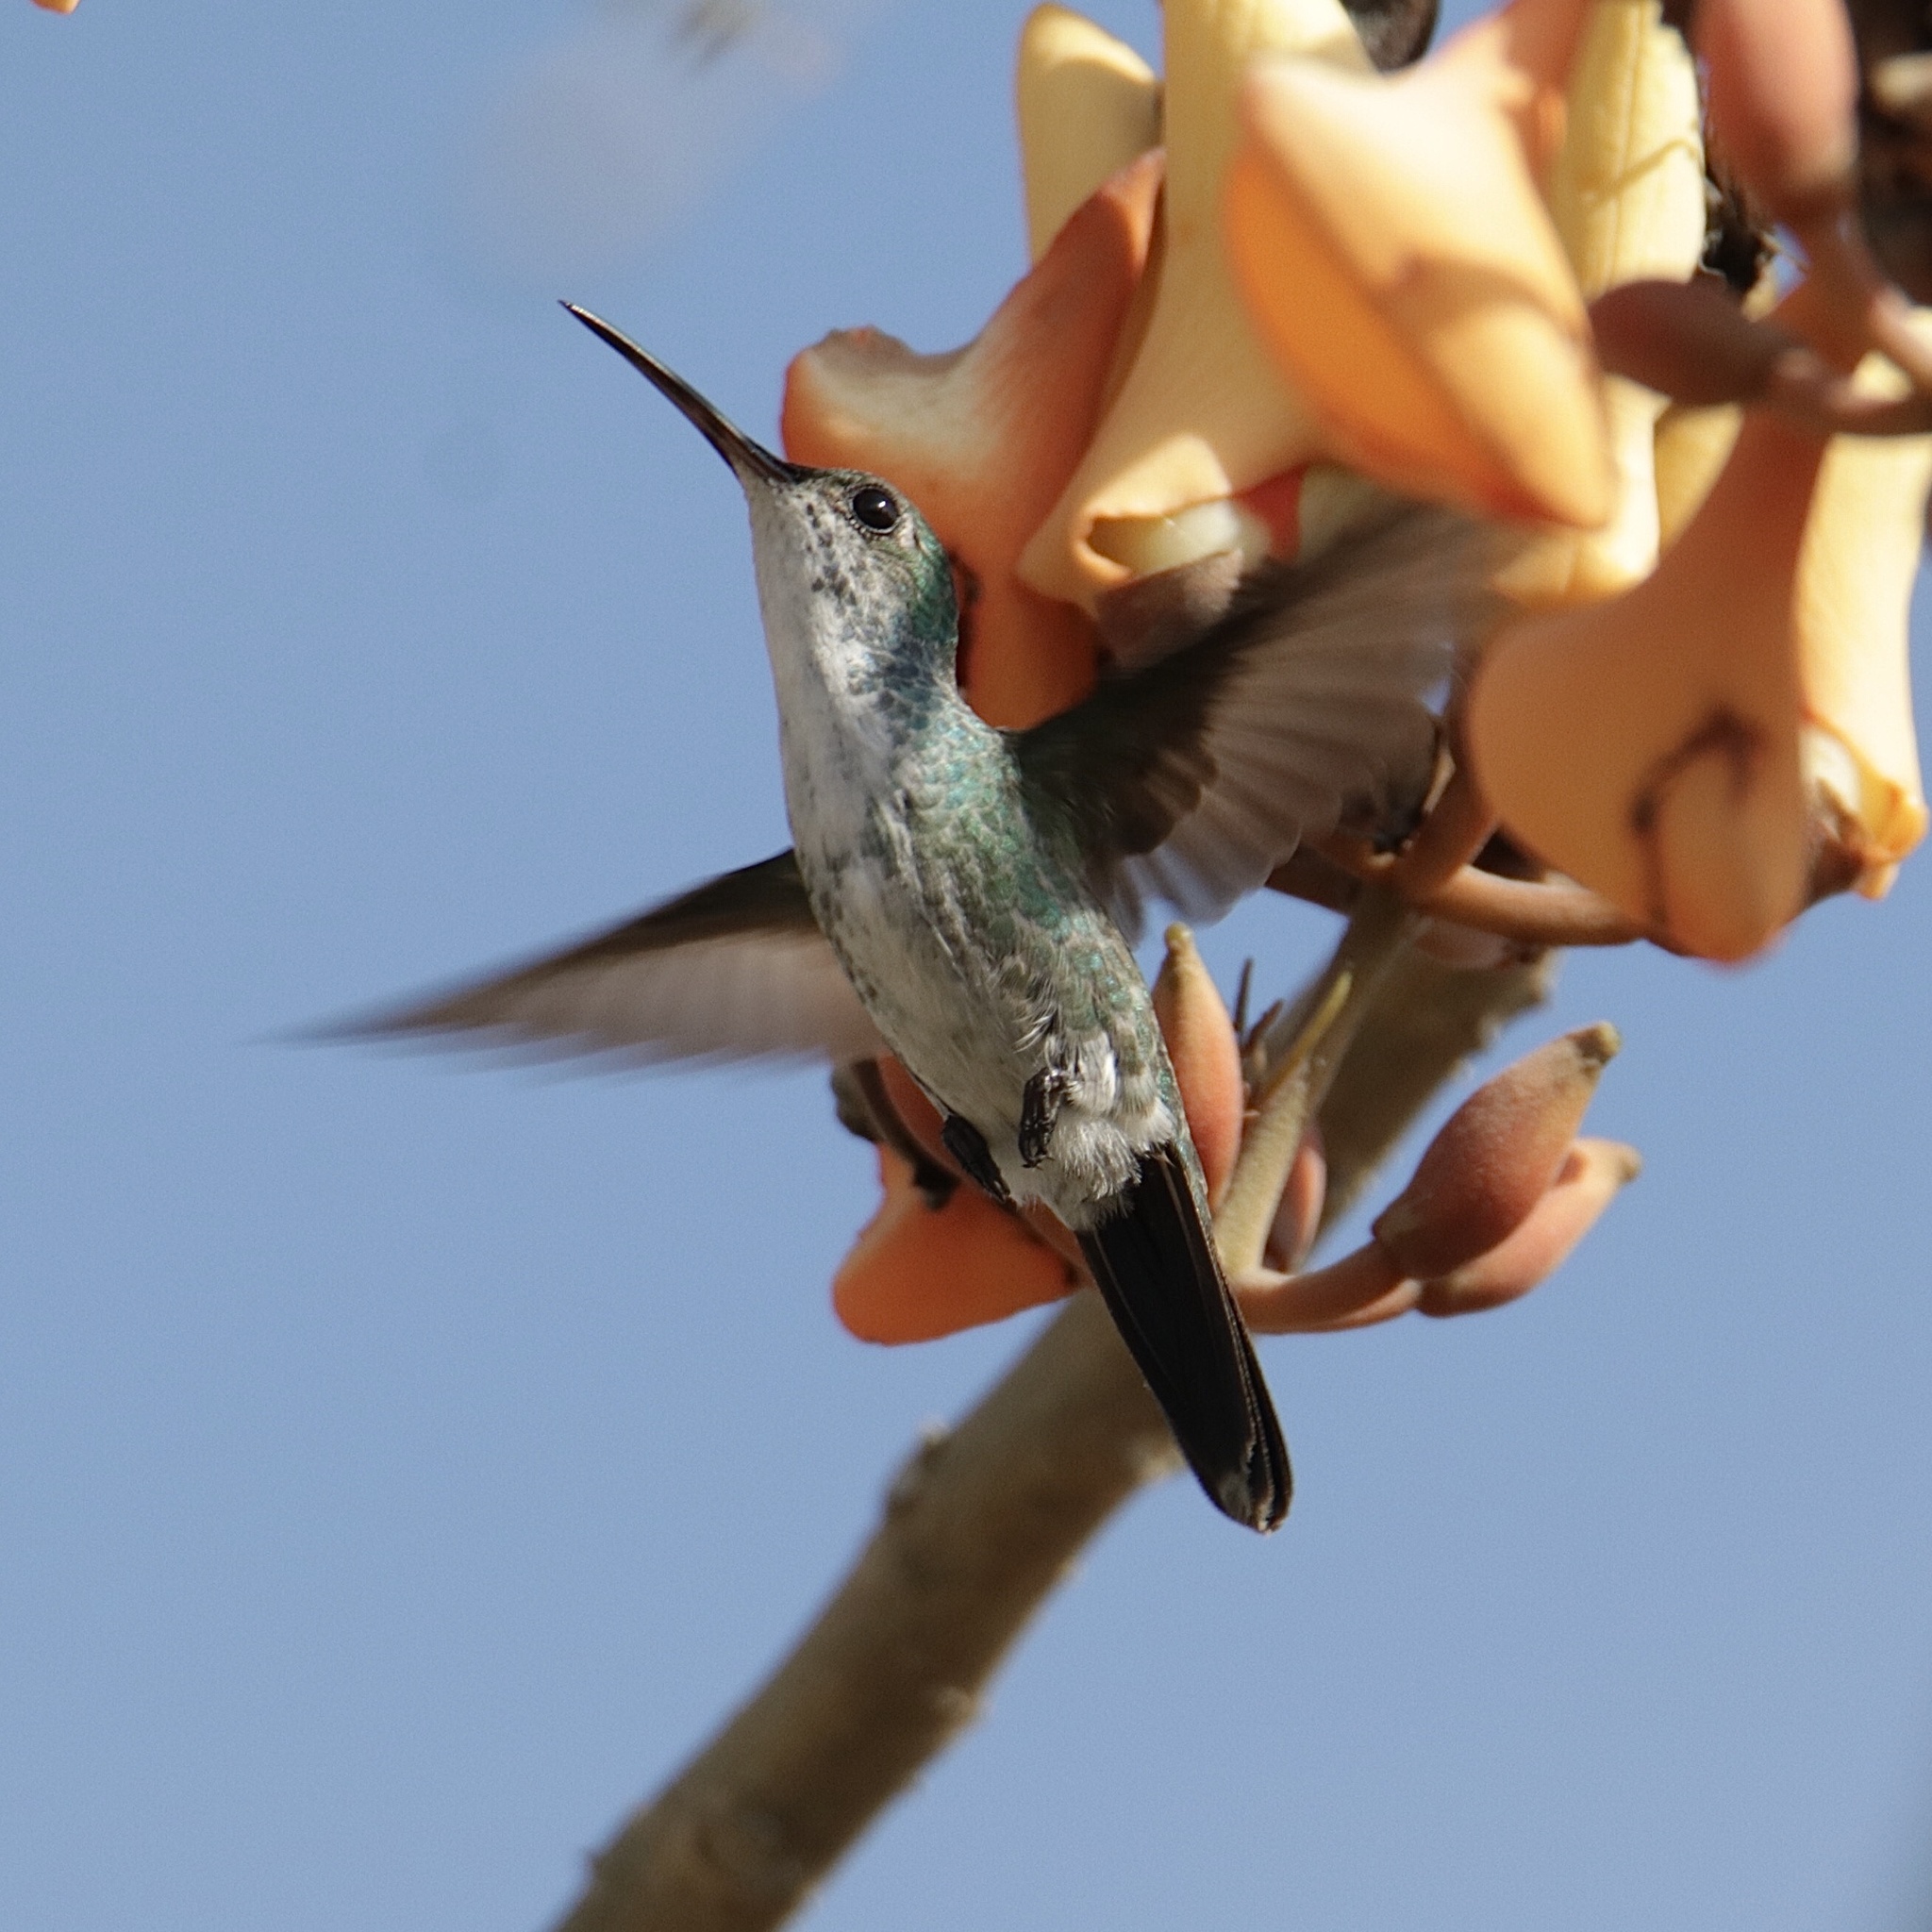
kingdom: Animalia
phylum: Chordata
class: Aves
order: Apodiformes
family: Trochilidae
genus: Chrysuronia
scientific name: Chrysuronia coeruleogularis
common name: Sapphire-throated hummingbird
